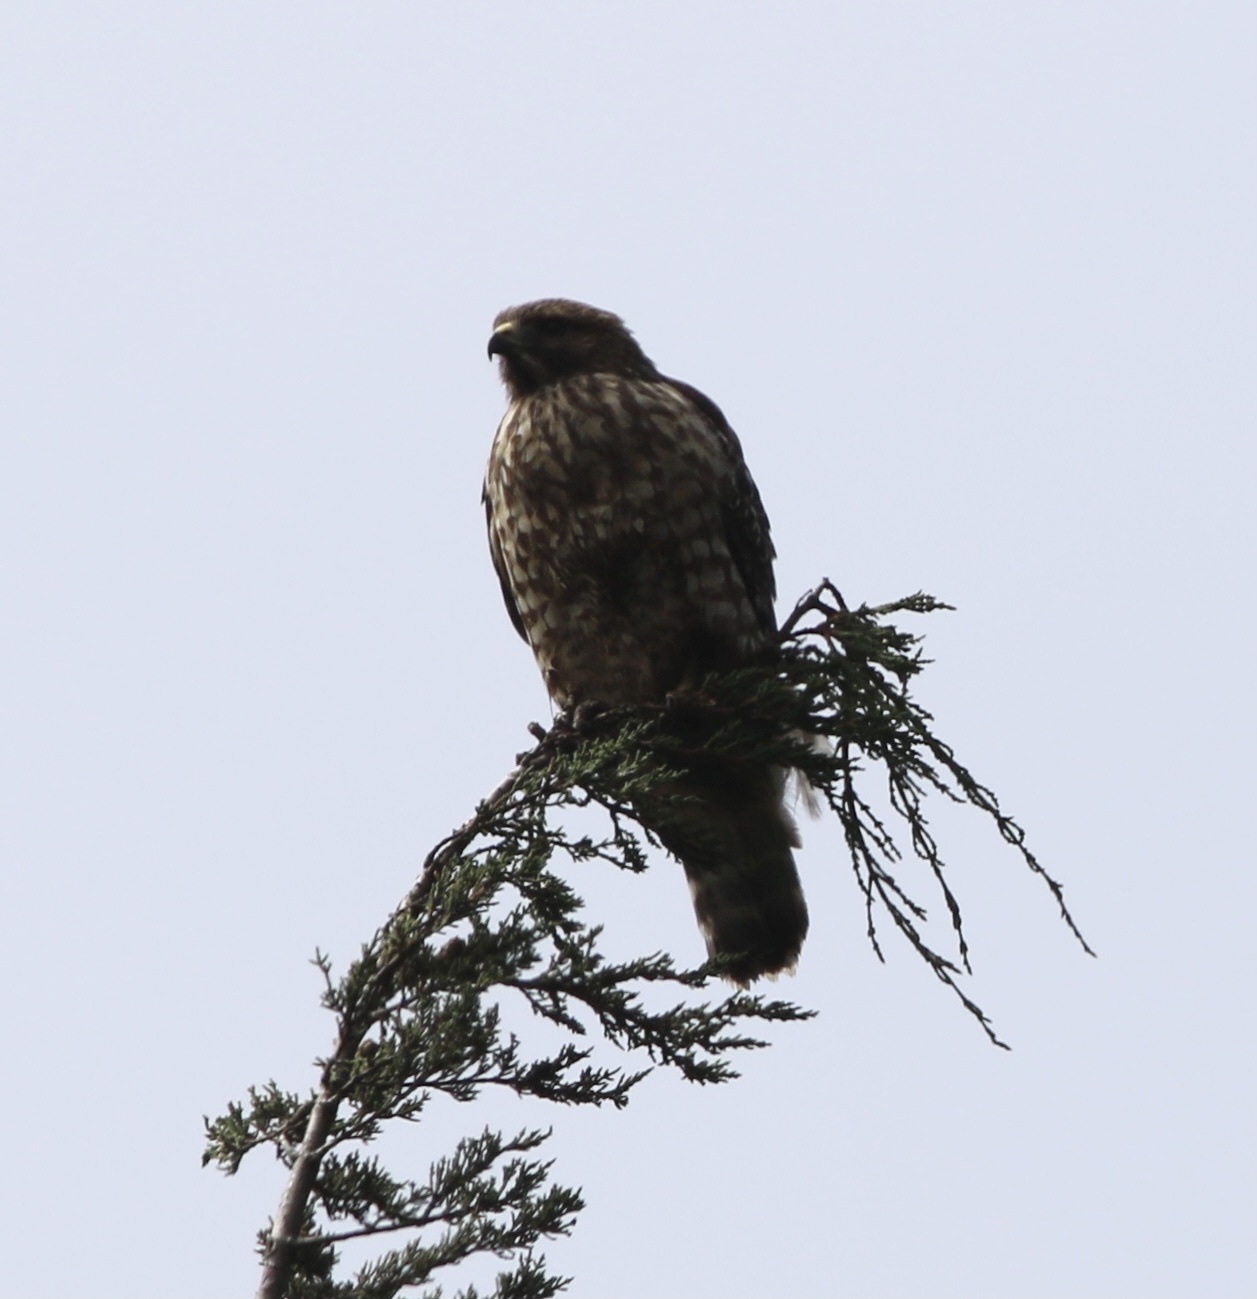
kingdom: Animalia
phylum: Chordata
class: Aves
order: Accipitriformes
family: Accipitridae
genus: Buteo
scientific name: Buteo lineatus
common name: Red-shouldered hawk
